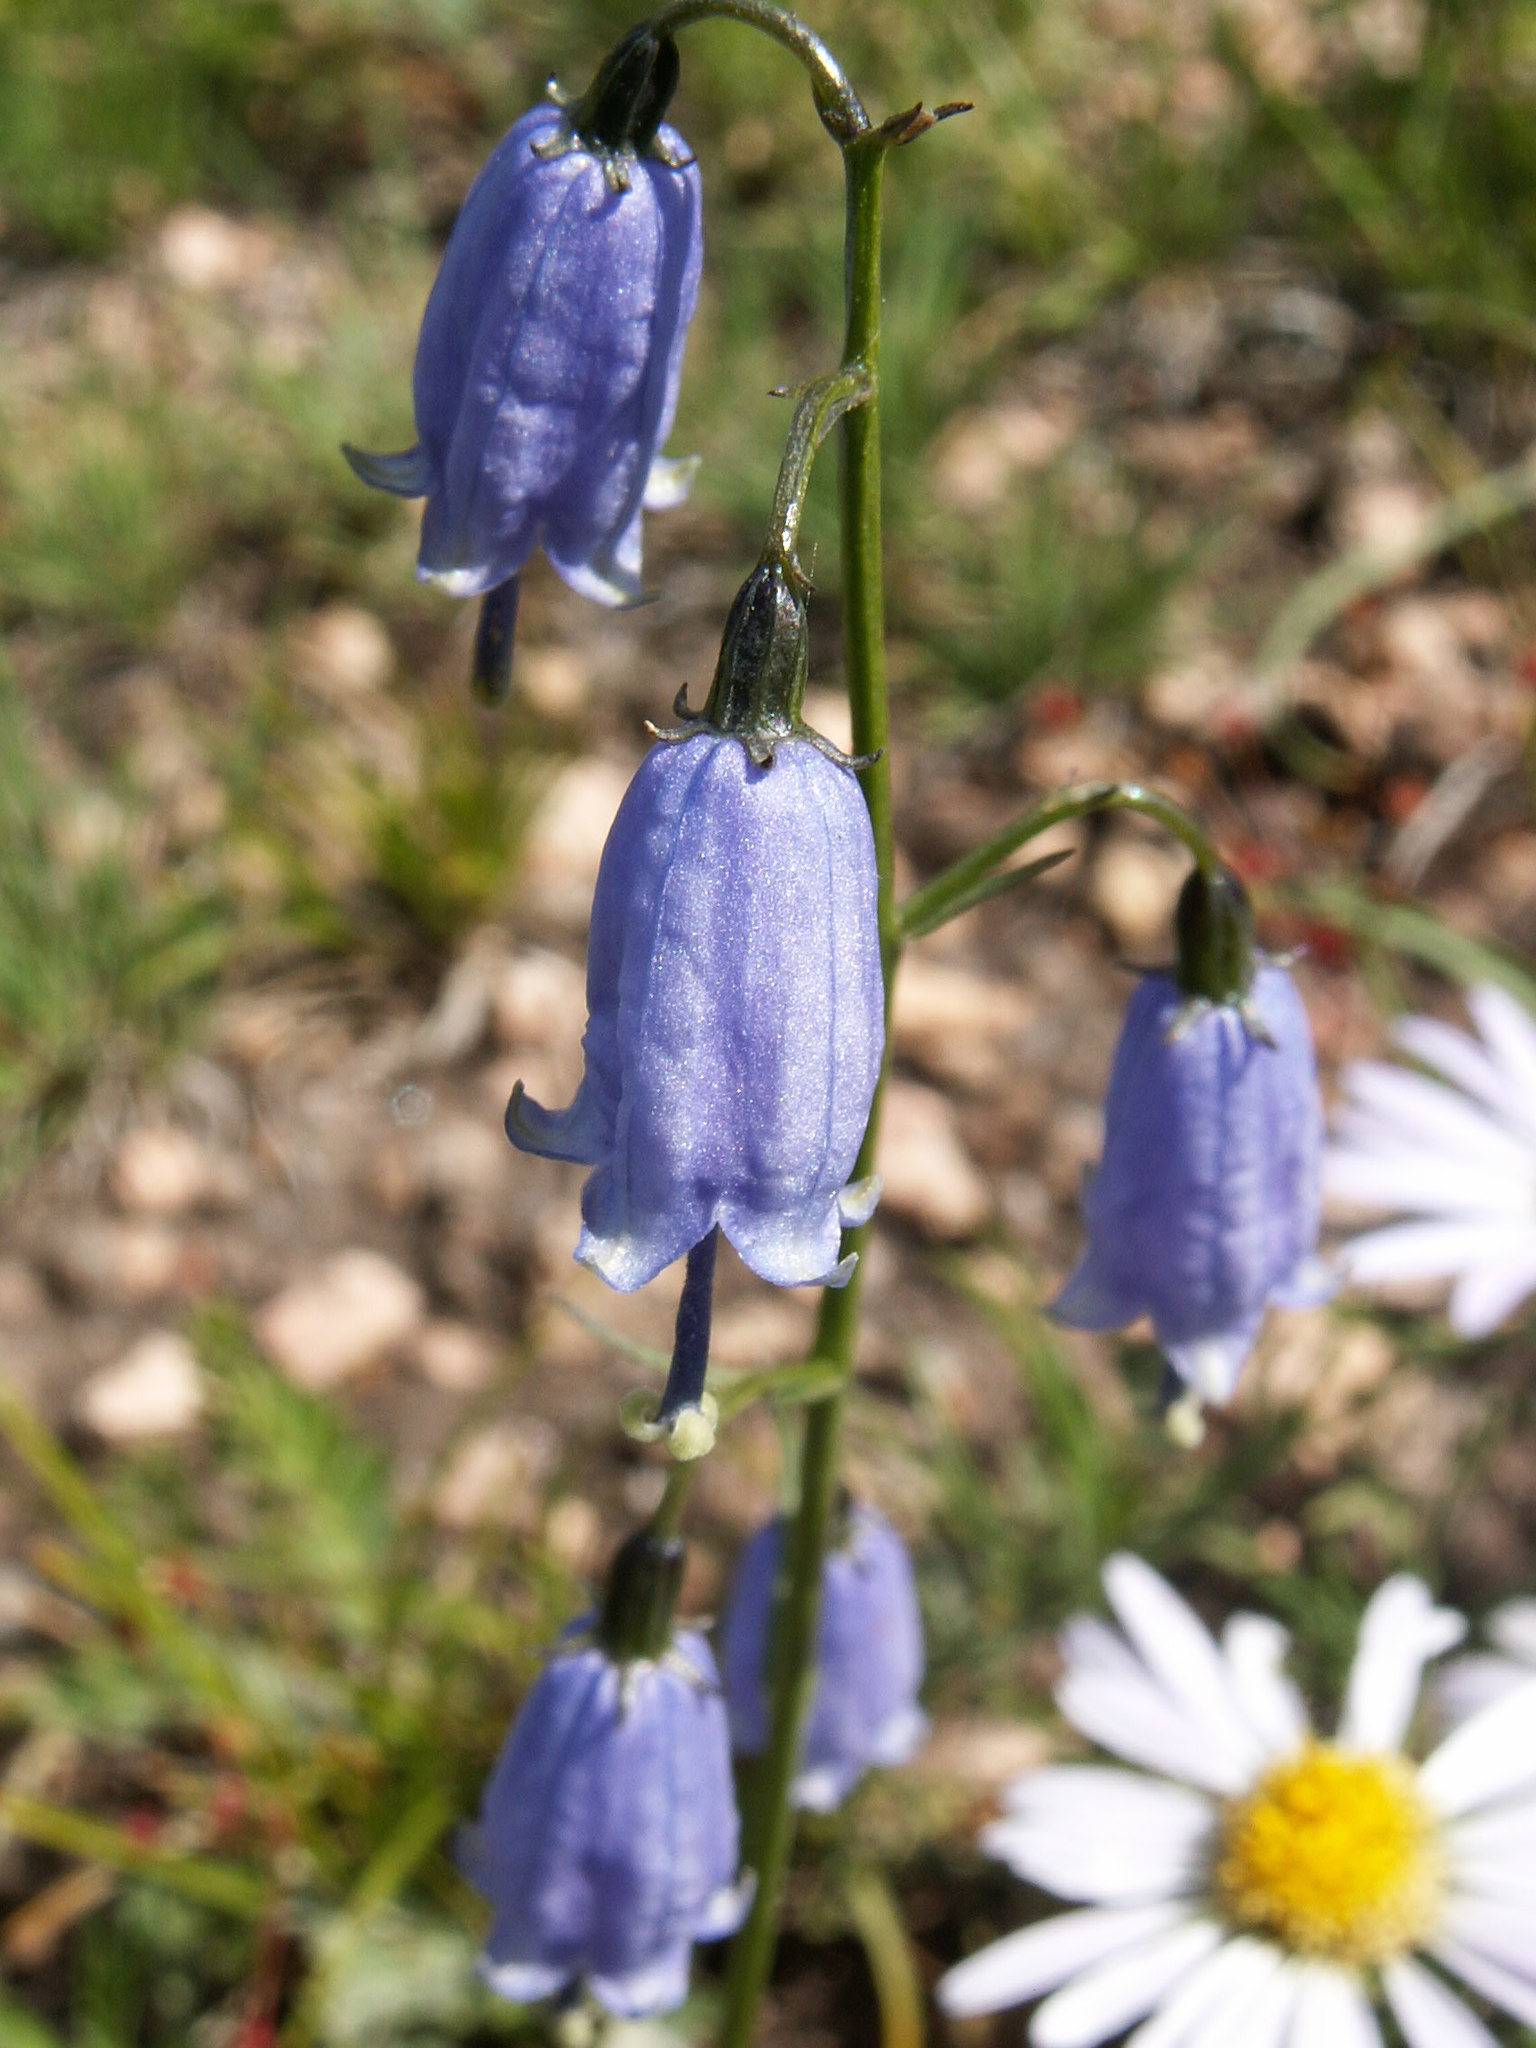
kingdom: Plantae
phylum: Tracheophyta
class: Magnoliopsida
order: Asterales
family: Campanulaceae
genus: Adenophora
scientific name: Adenophora stenanthina
